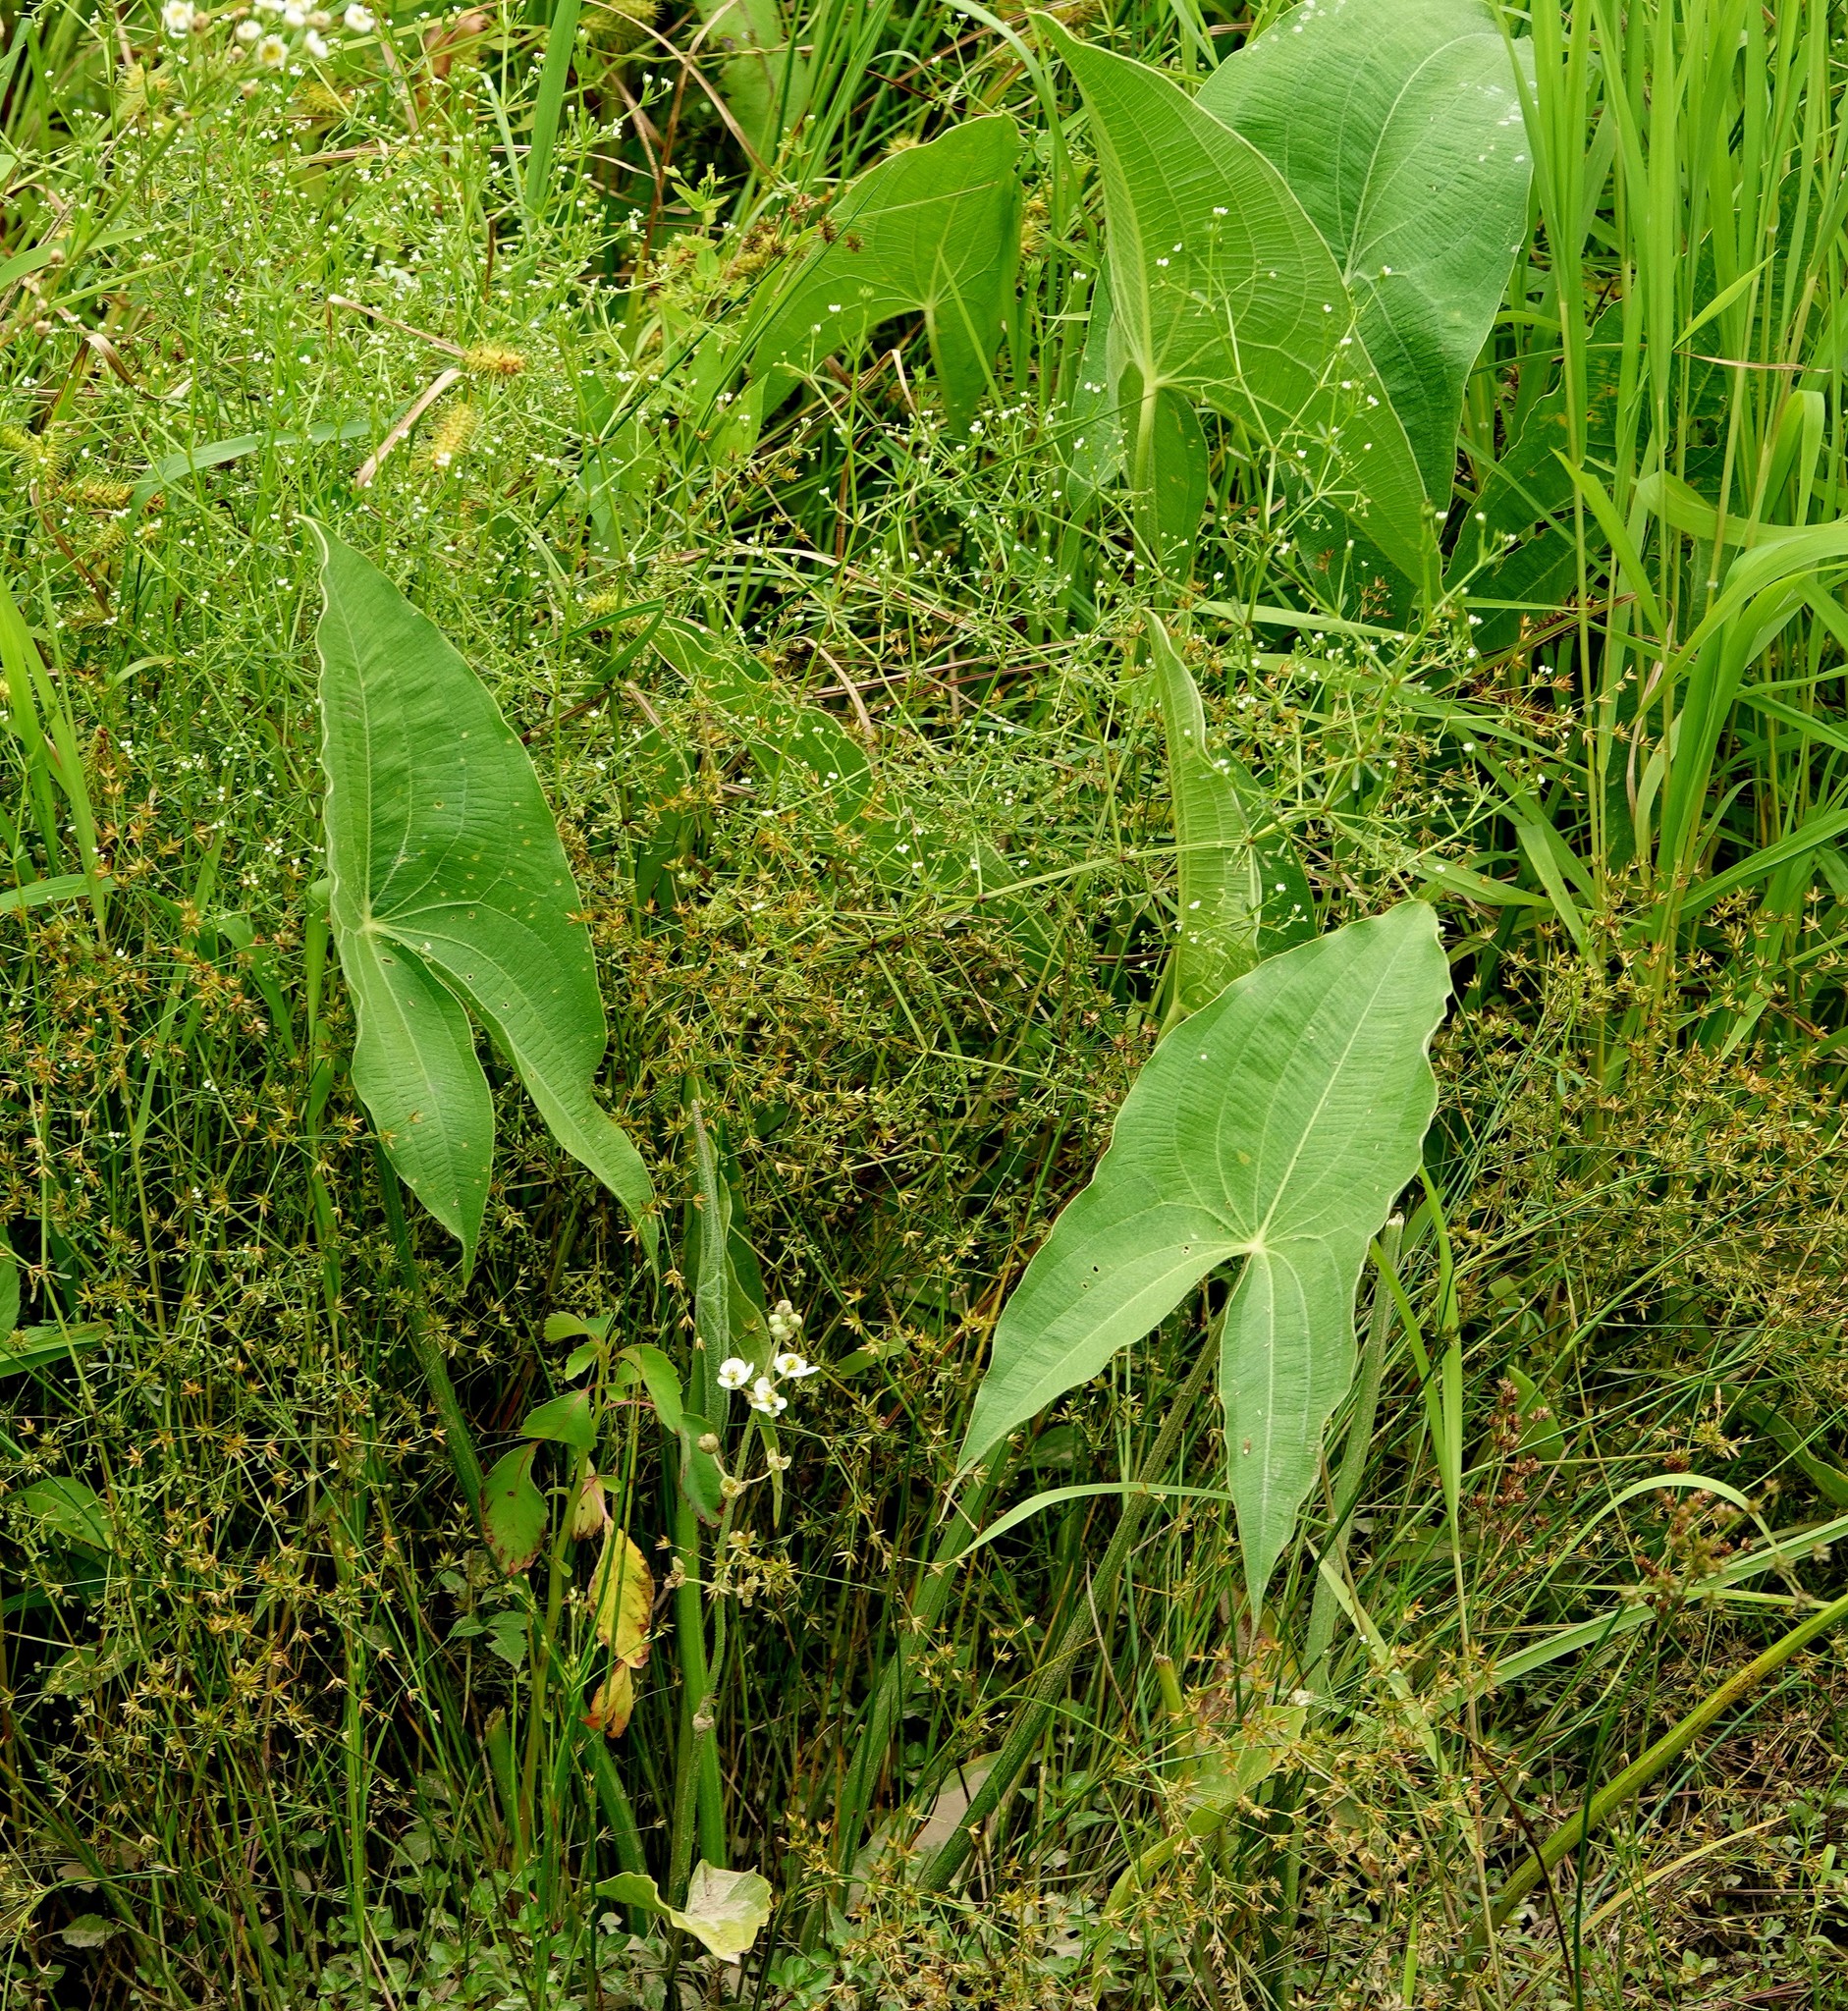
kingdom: Plantae
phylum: Tracheophyta
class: Liliopsida
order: Alismatales
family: Alismataceae
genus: Sagittaria
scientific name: Sagittaria latifolia
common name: Duck-potato
